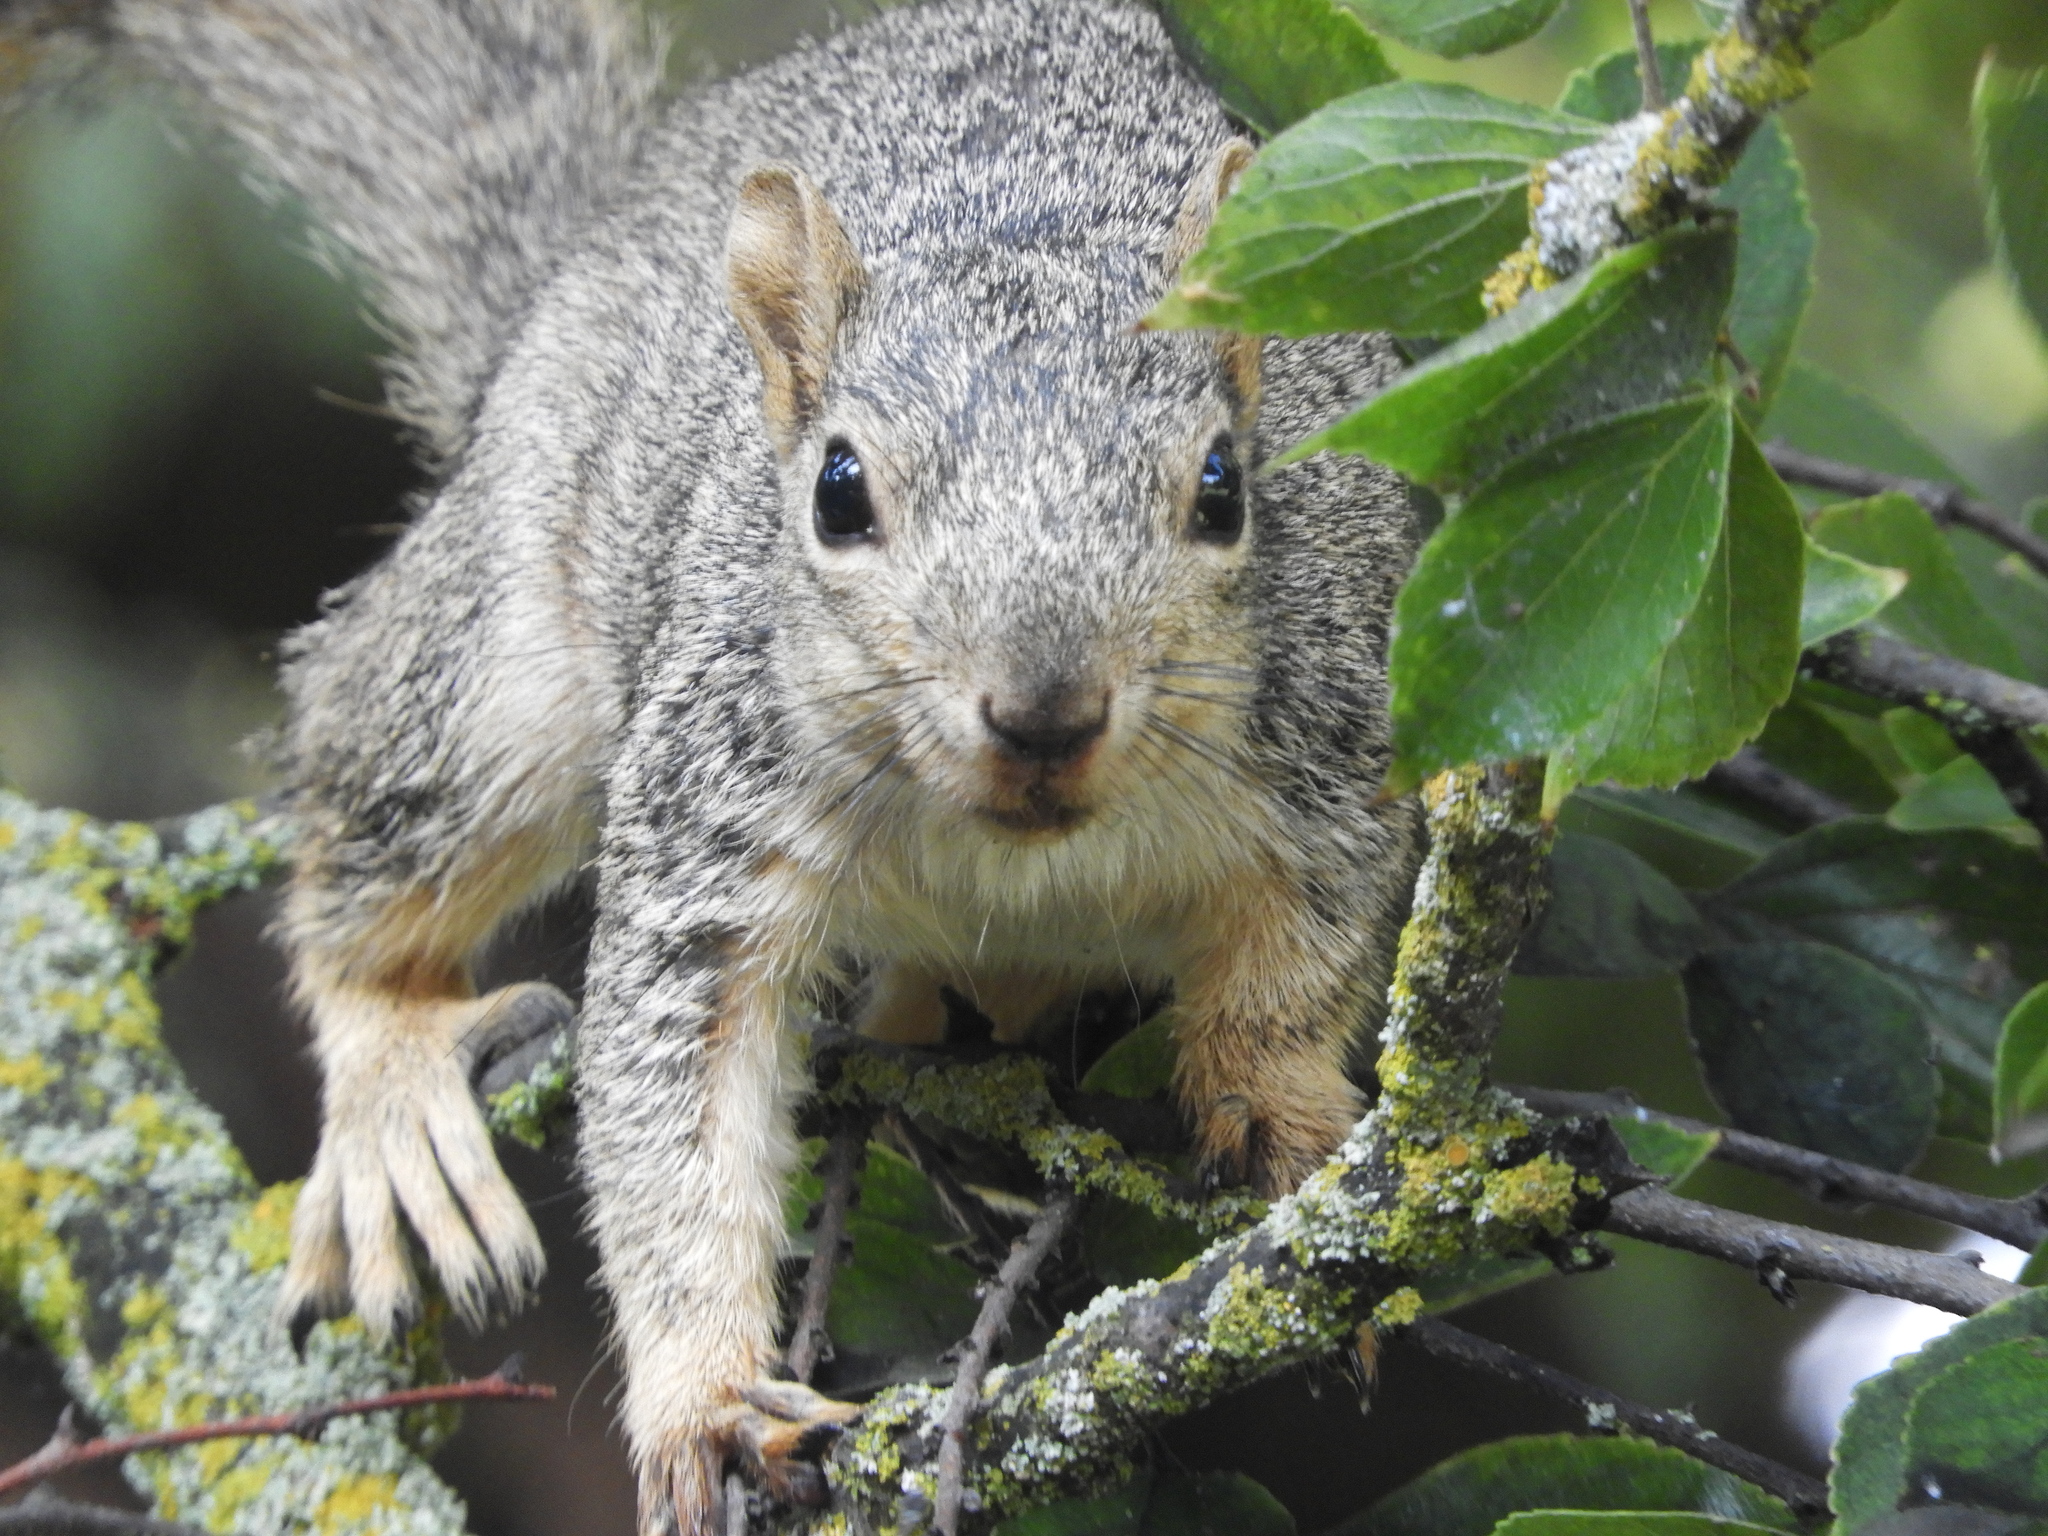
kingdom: Animalia
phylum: Chordata
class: Mammalia
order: Rodentia
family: Sciuridae
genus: Sciurus
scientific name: Sciurus griseus
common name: Western gray squirrel
